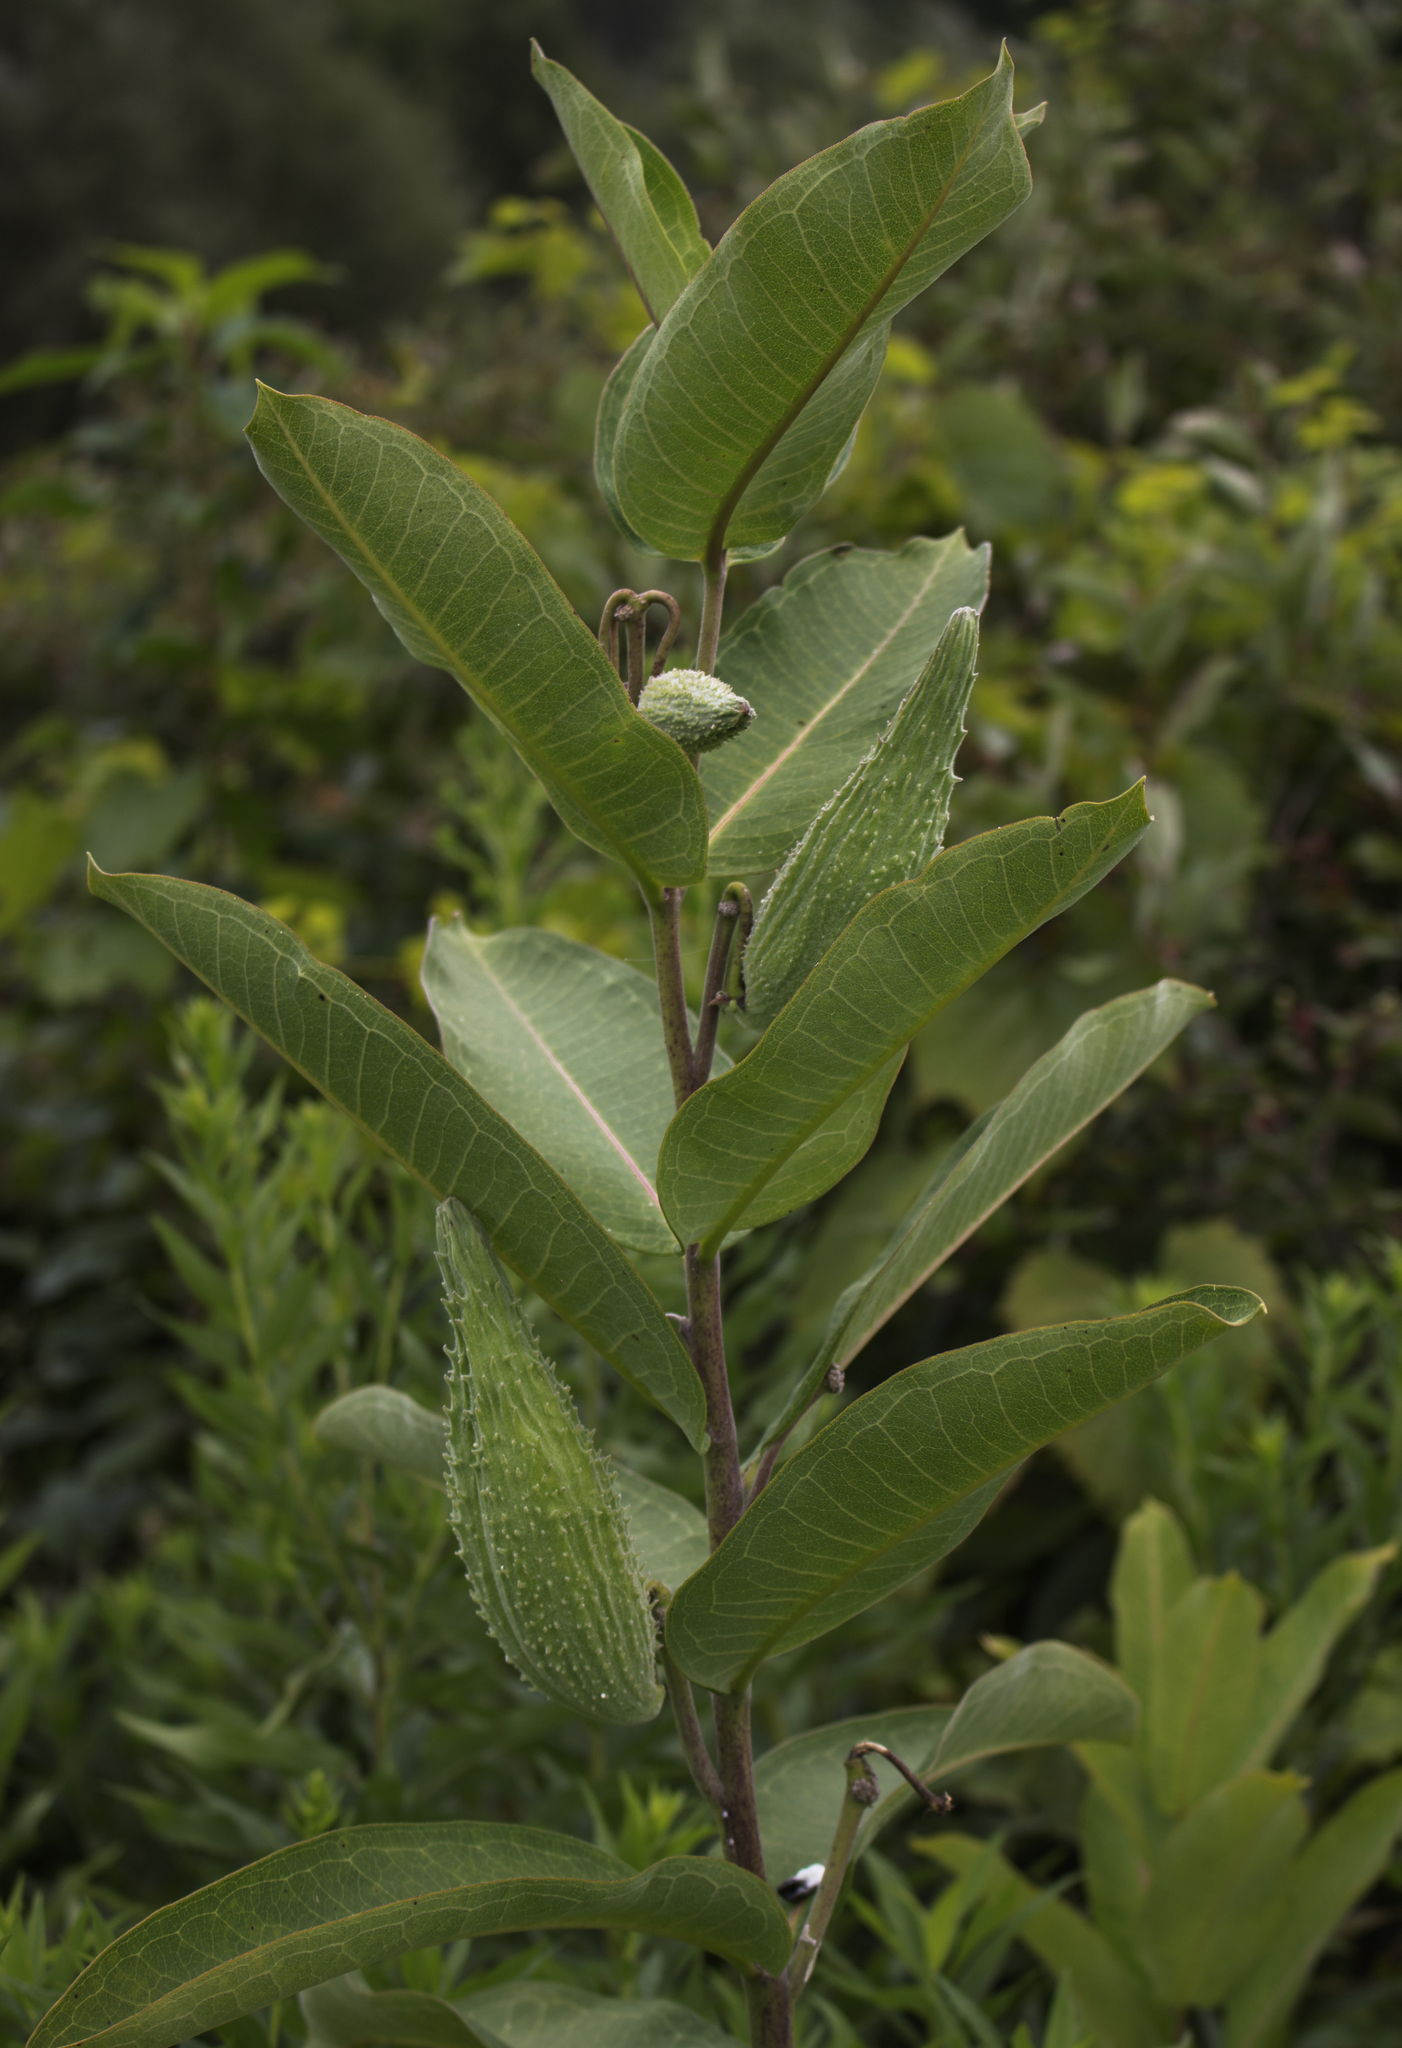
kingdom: Plantae
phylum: Tracheophyta
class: Magnoliopsida
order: Gentianales
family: Apocynaceae
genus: Asclepias
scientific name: Asclepias syriaca
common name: Common milkweed
